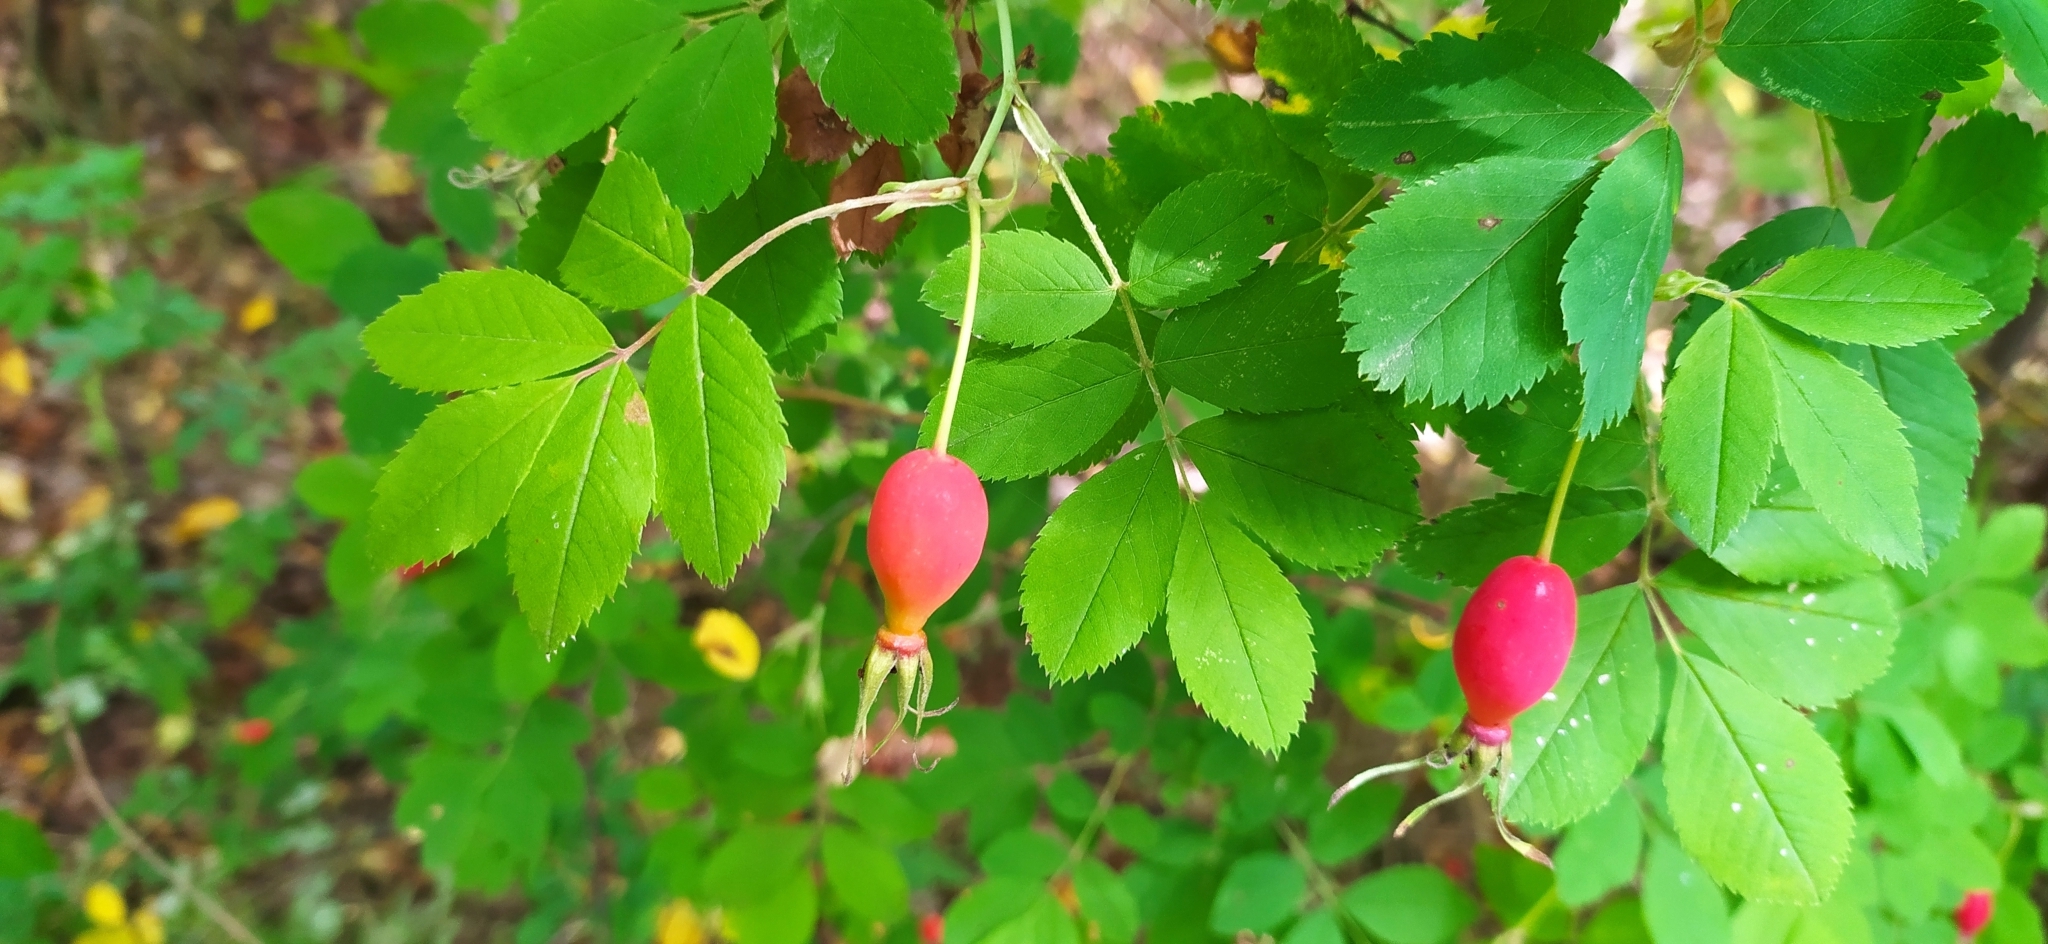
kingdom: Plantae
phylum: Tracheophyta
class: Magnoliopsida
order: Rosales
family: Rosaceae
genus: Rosa
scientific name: Rosa majalis
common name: Cinnamon rose
